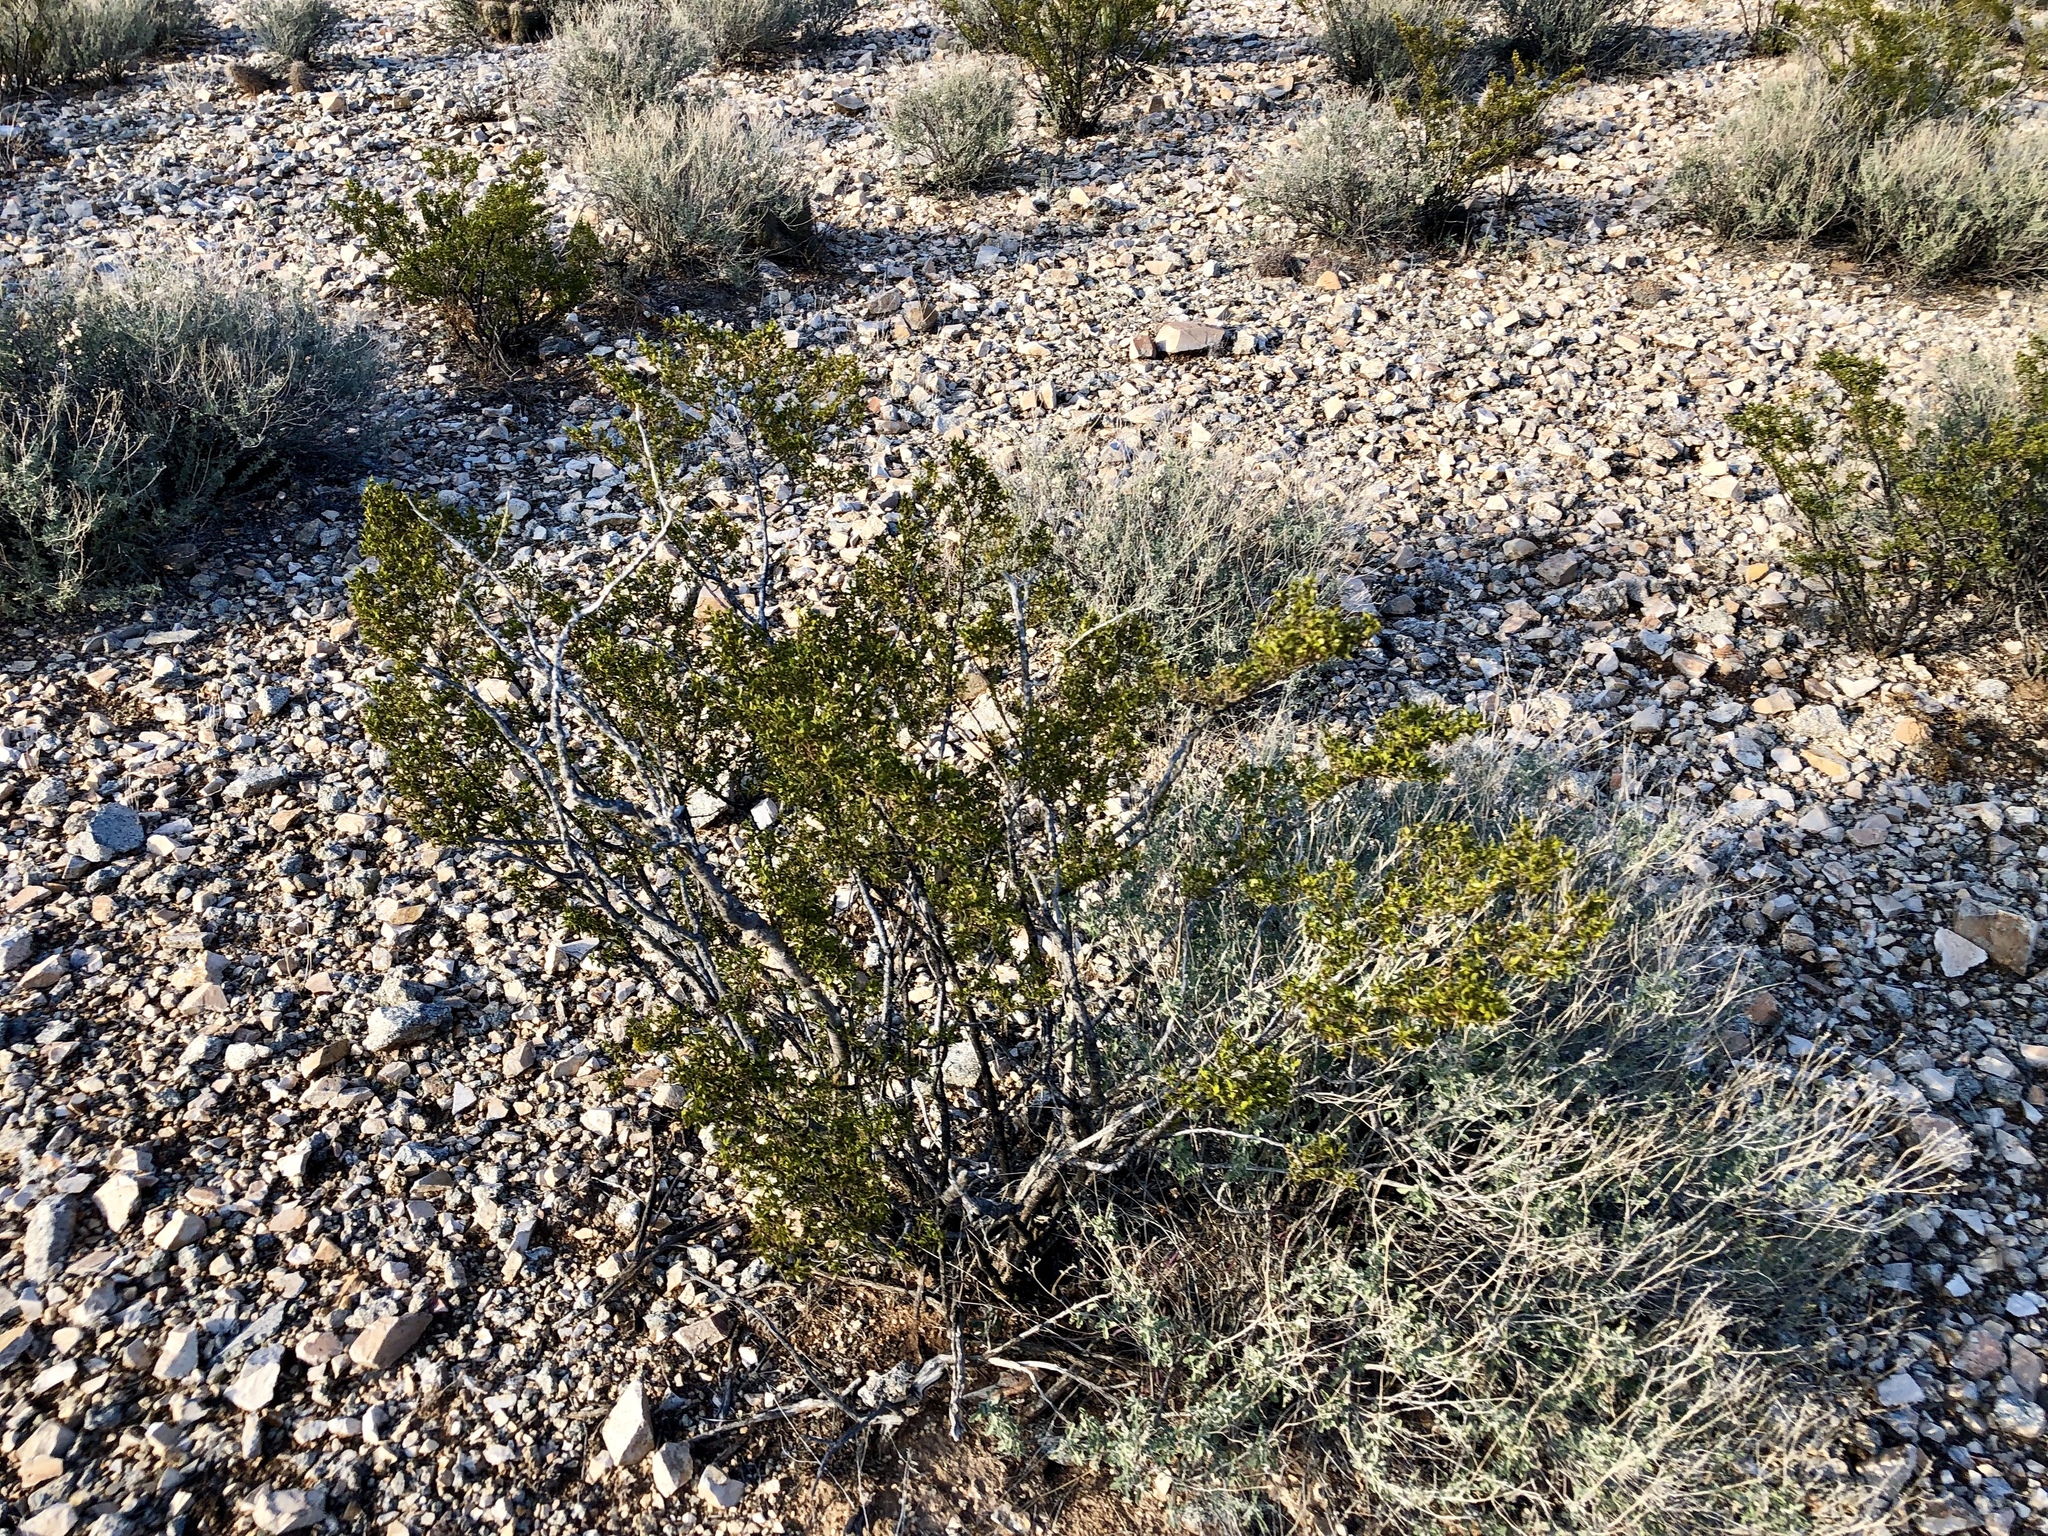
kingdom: Plantae
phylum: Tracheophyta
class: Magnoliopsida
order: Zygophyllales
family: Zygophyllaceae
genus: Larrea
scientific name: Larrea tridentata
